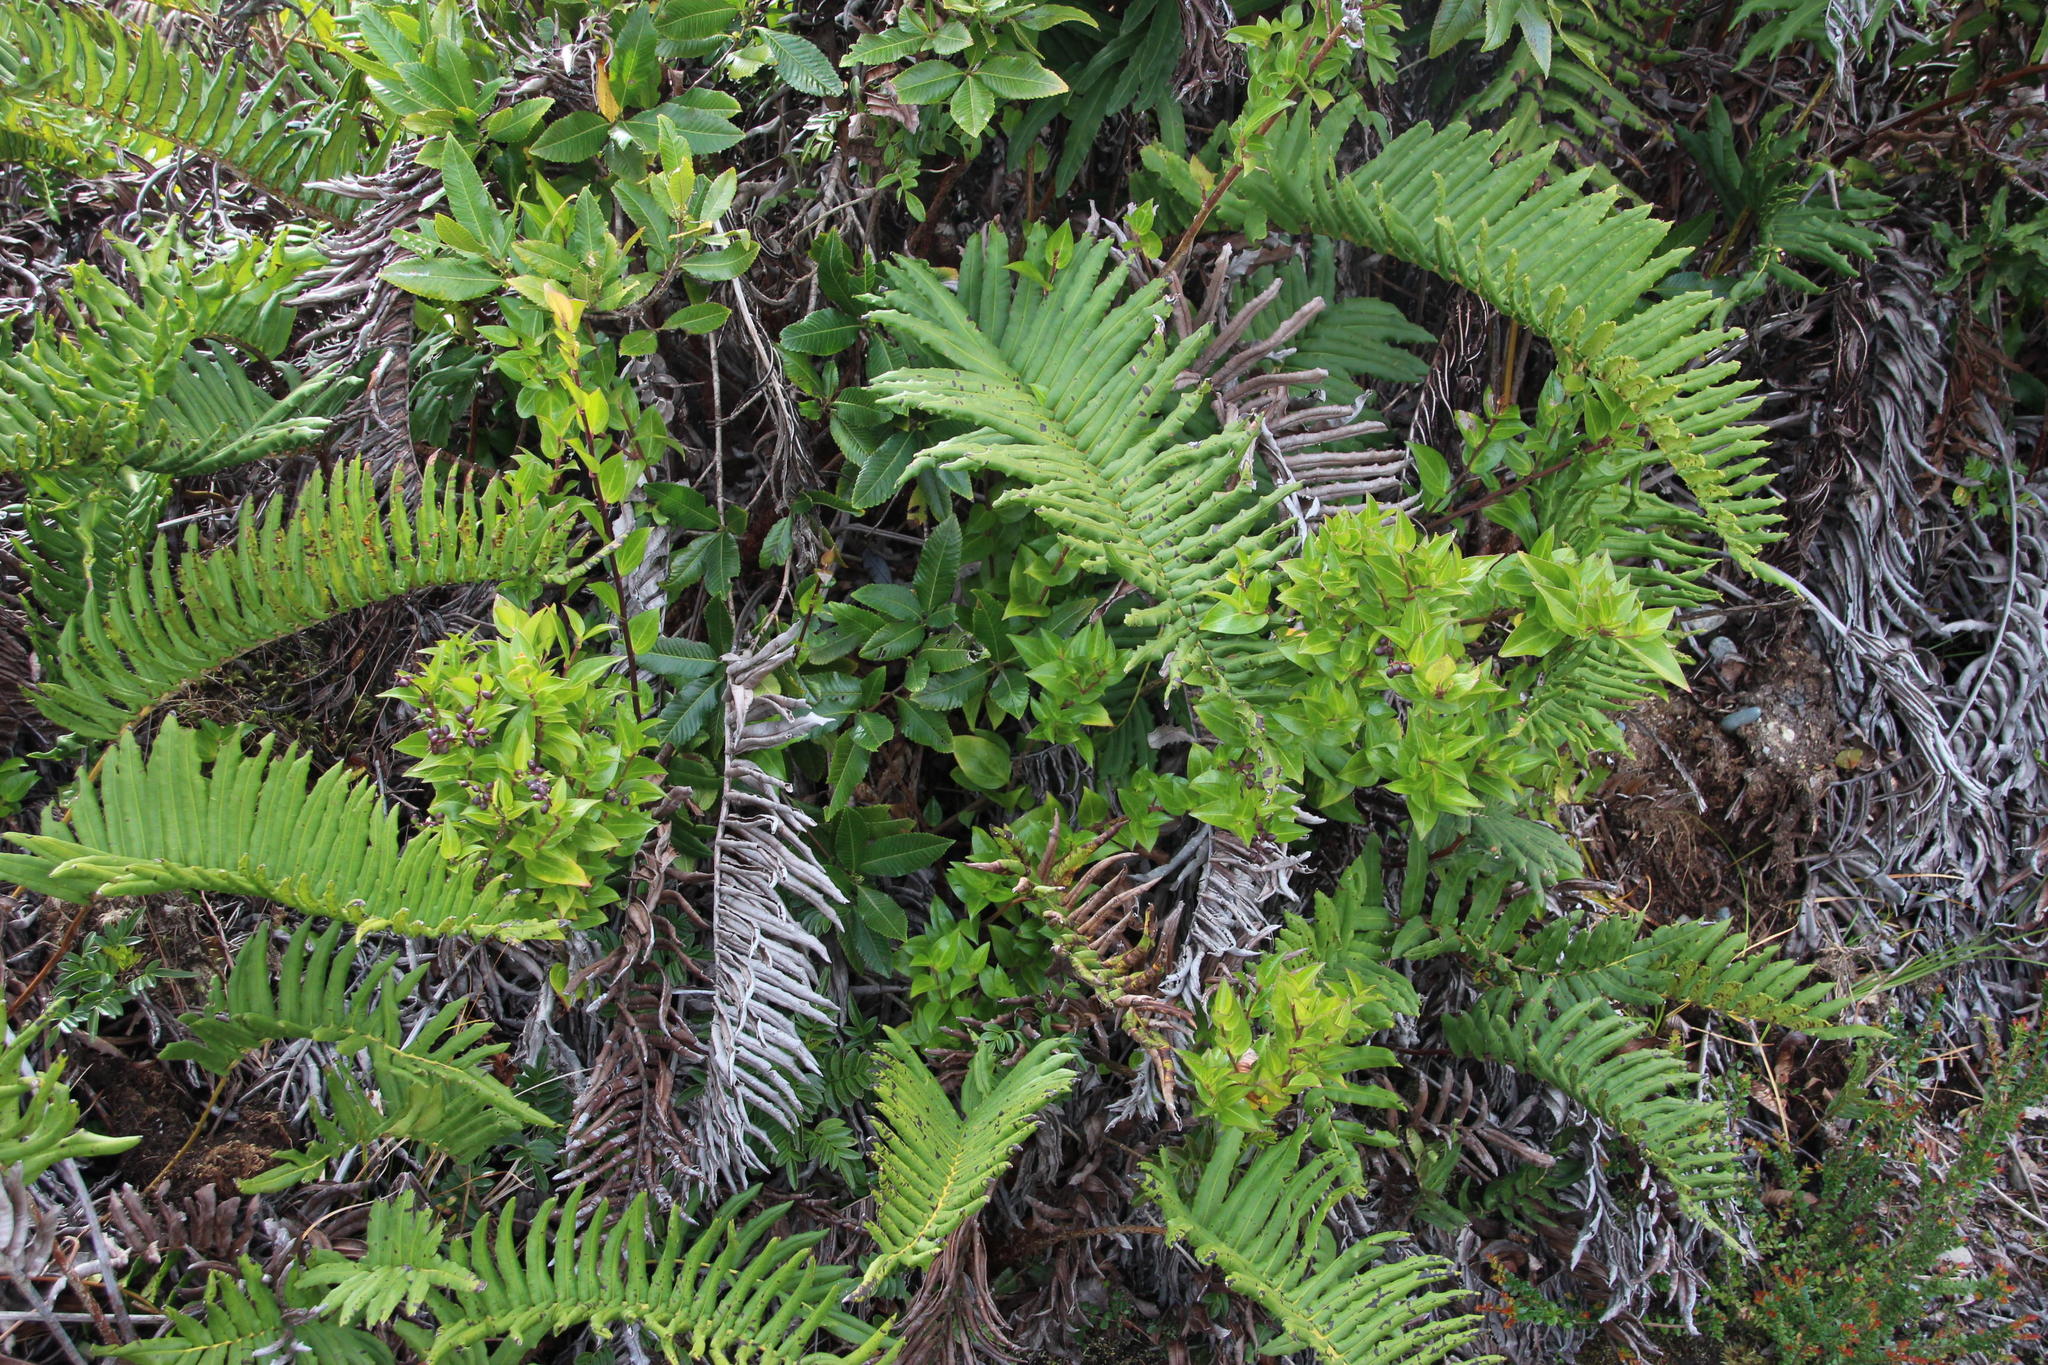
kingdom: Plantae
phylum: Tracheophyta
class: Polypodiopsida
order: Polypodiales
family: Blechnaceae
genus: Parablechnum
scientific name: Parablechnum chilense
